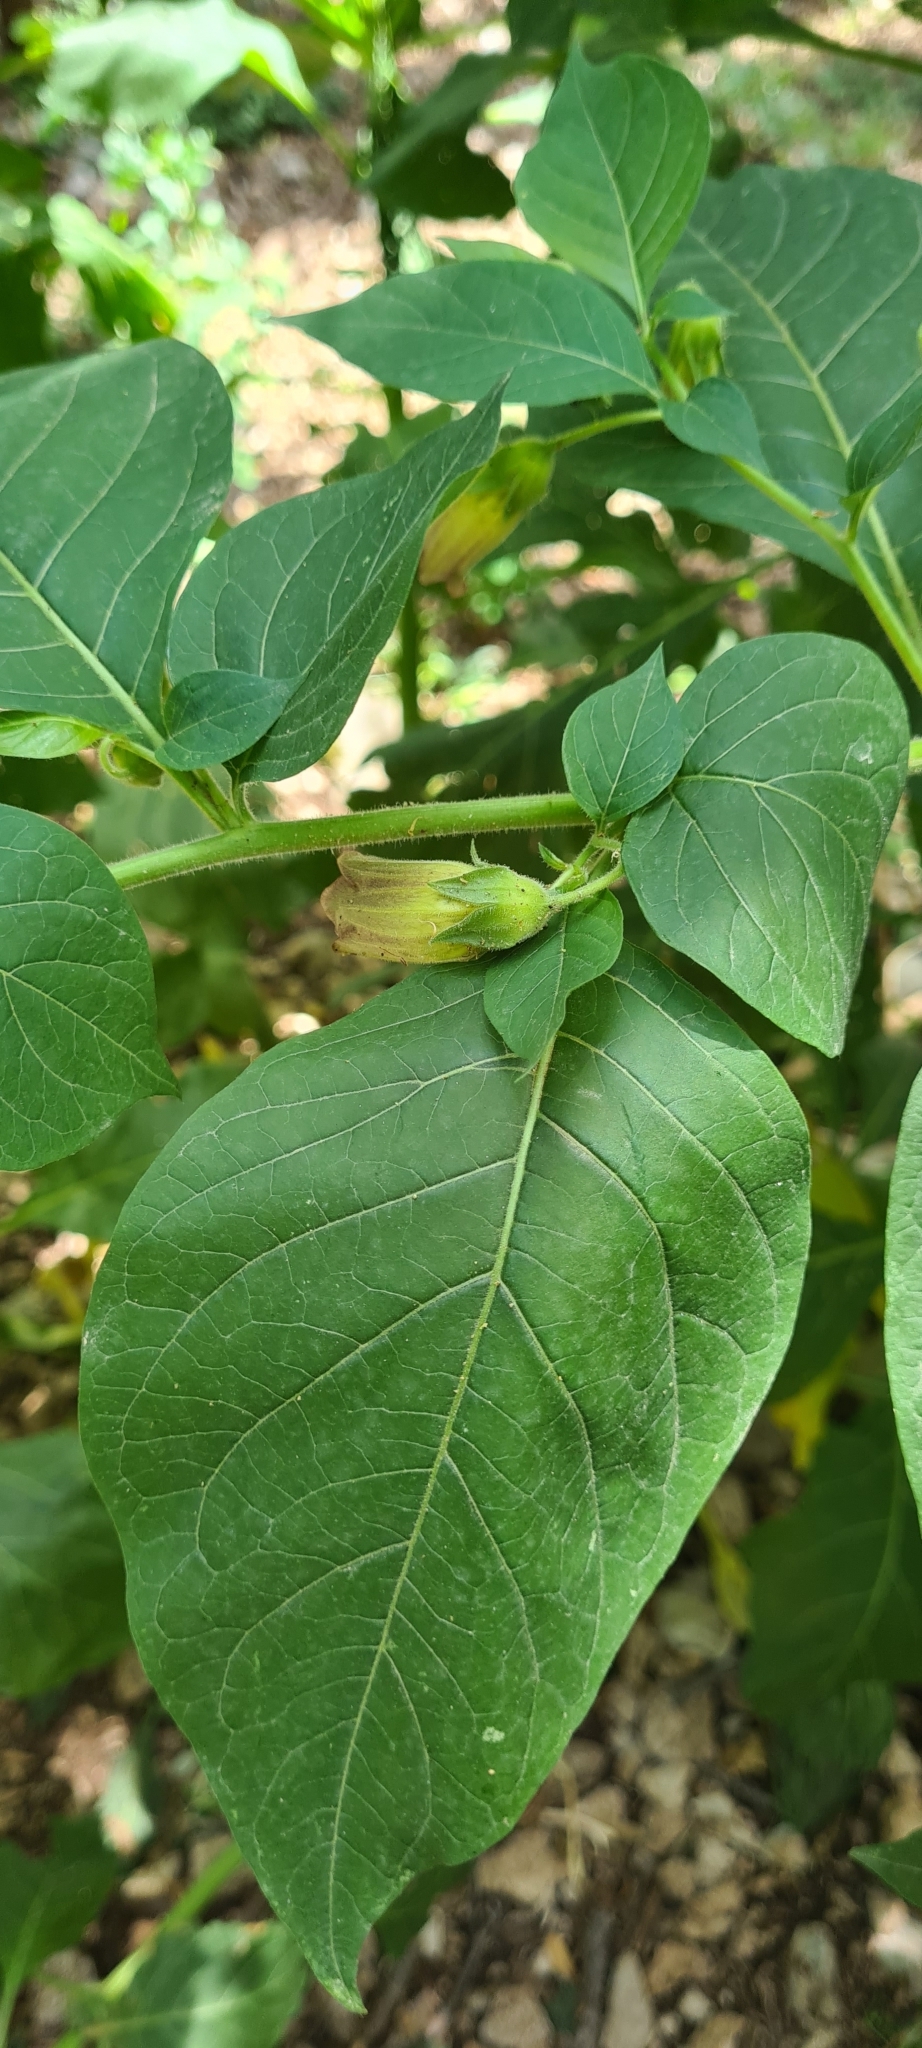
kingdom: Plantae
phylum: Tracheophyta
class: Magnoliopsida
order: Solanales
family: Solanaceae
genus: Atropa
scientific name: Atropa belladonna
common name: Deadly nightshade
